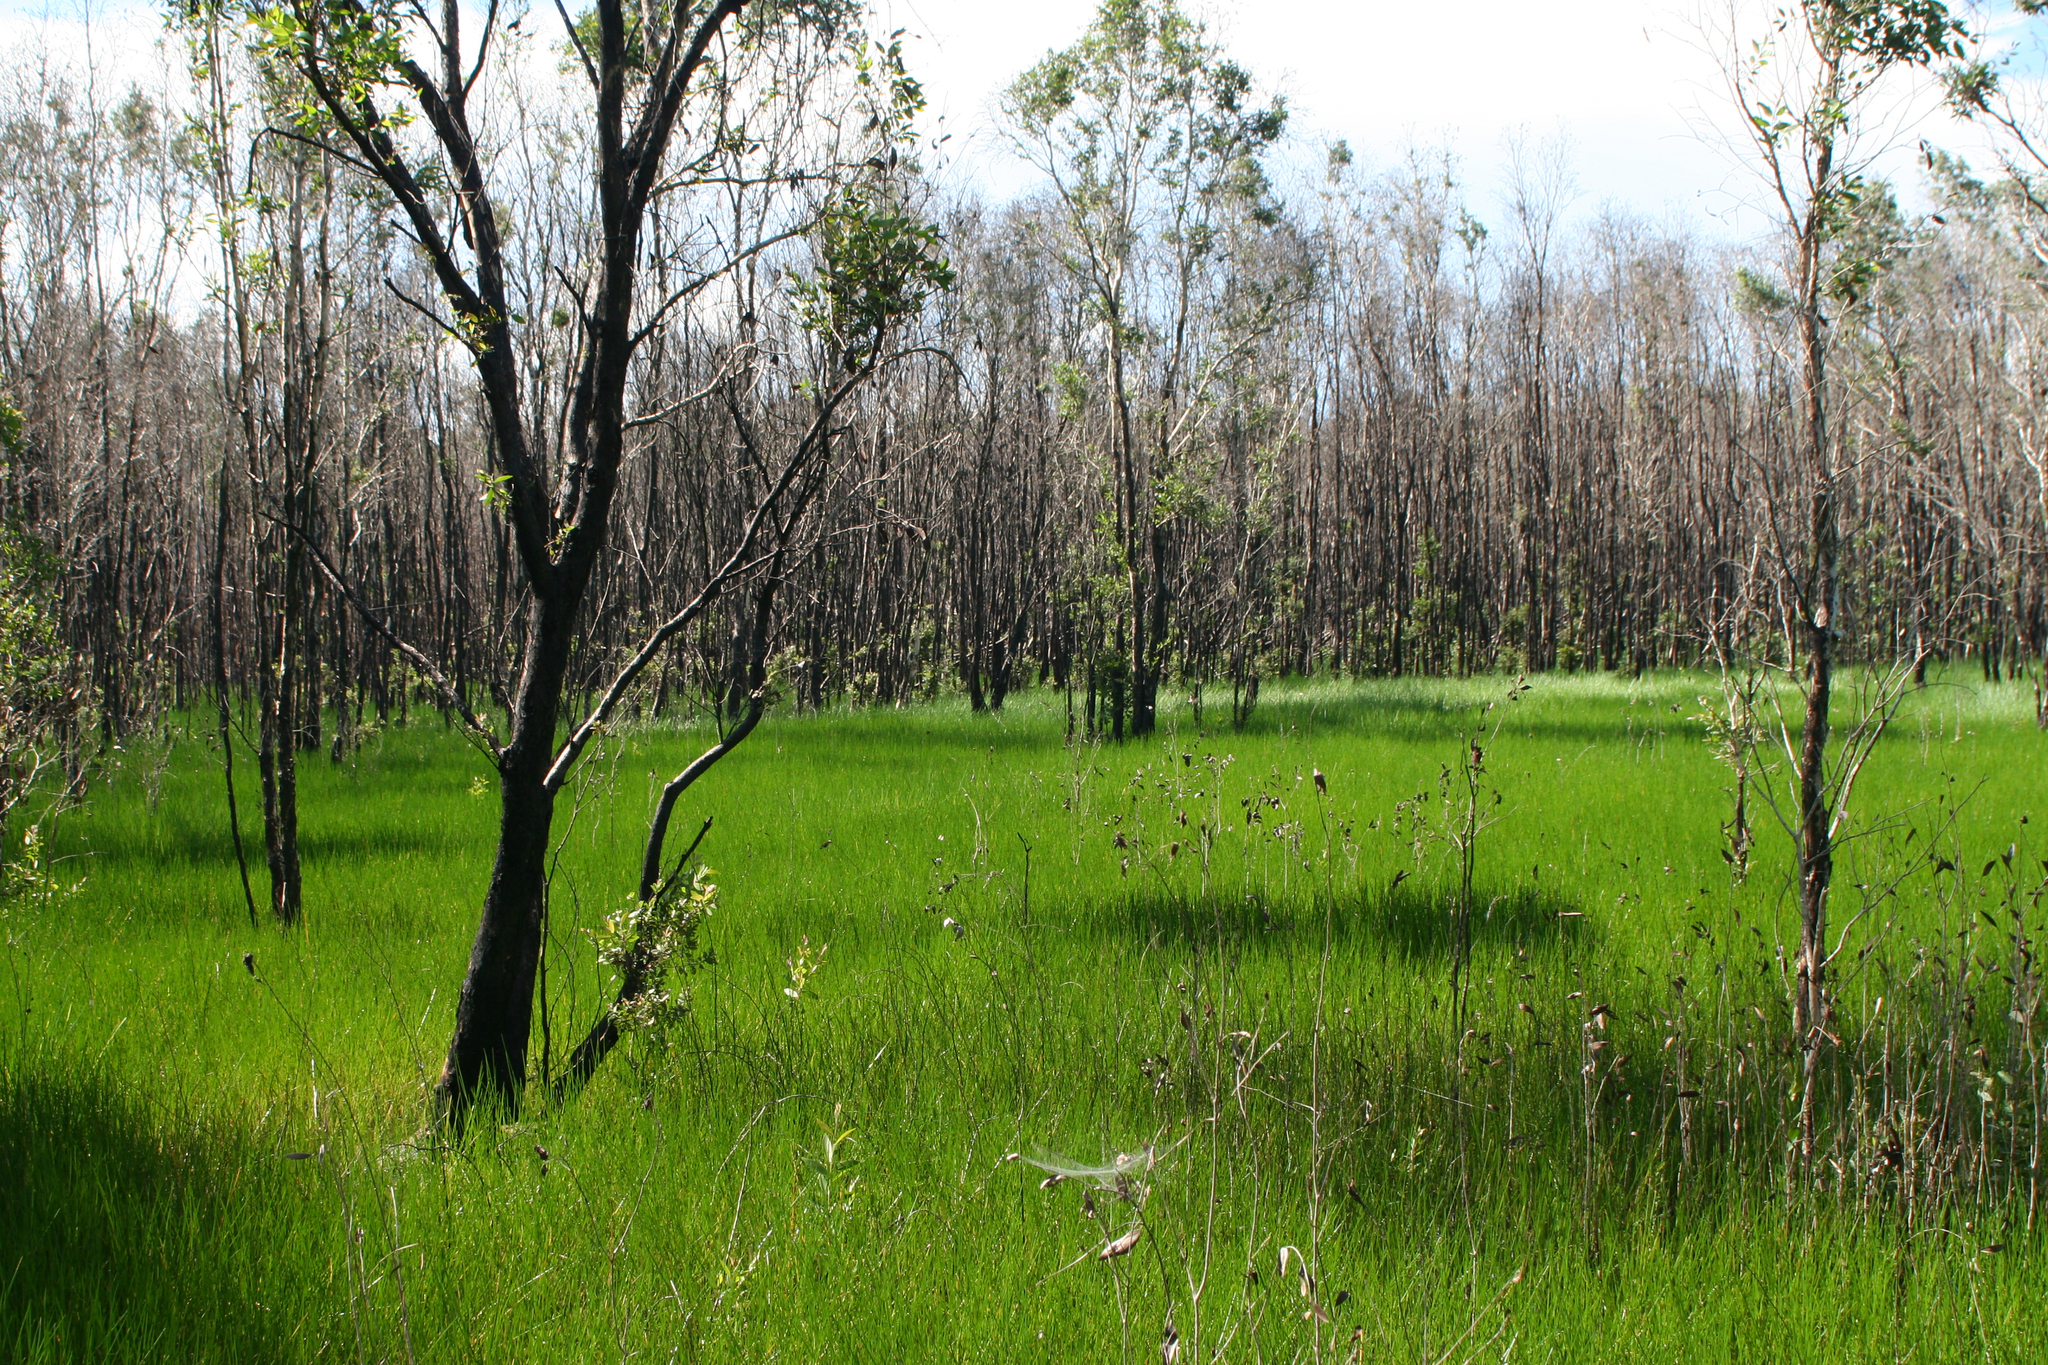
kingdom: Plantae
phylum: Tracheophyta
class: Magnoliopsida
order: Myrtales
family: Myrtaceae
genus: Melaleuca
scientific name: Melaleuca cajuputi
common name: Cajuput
